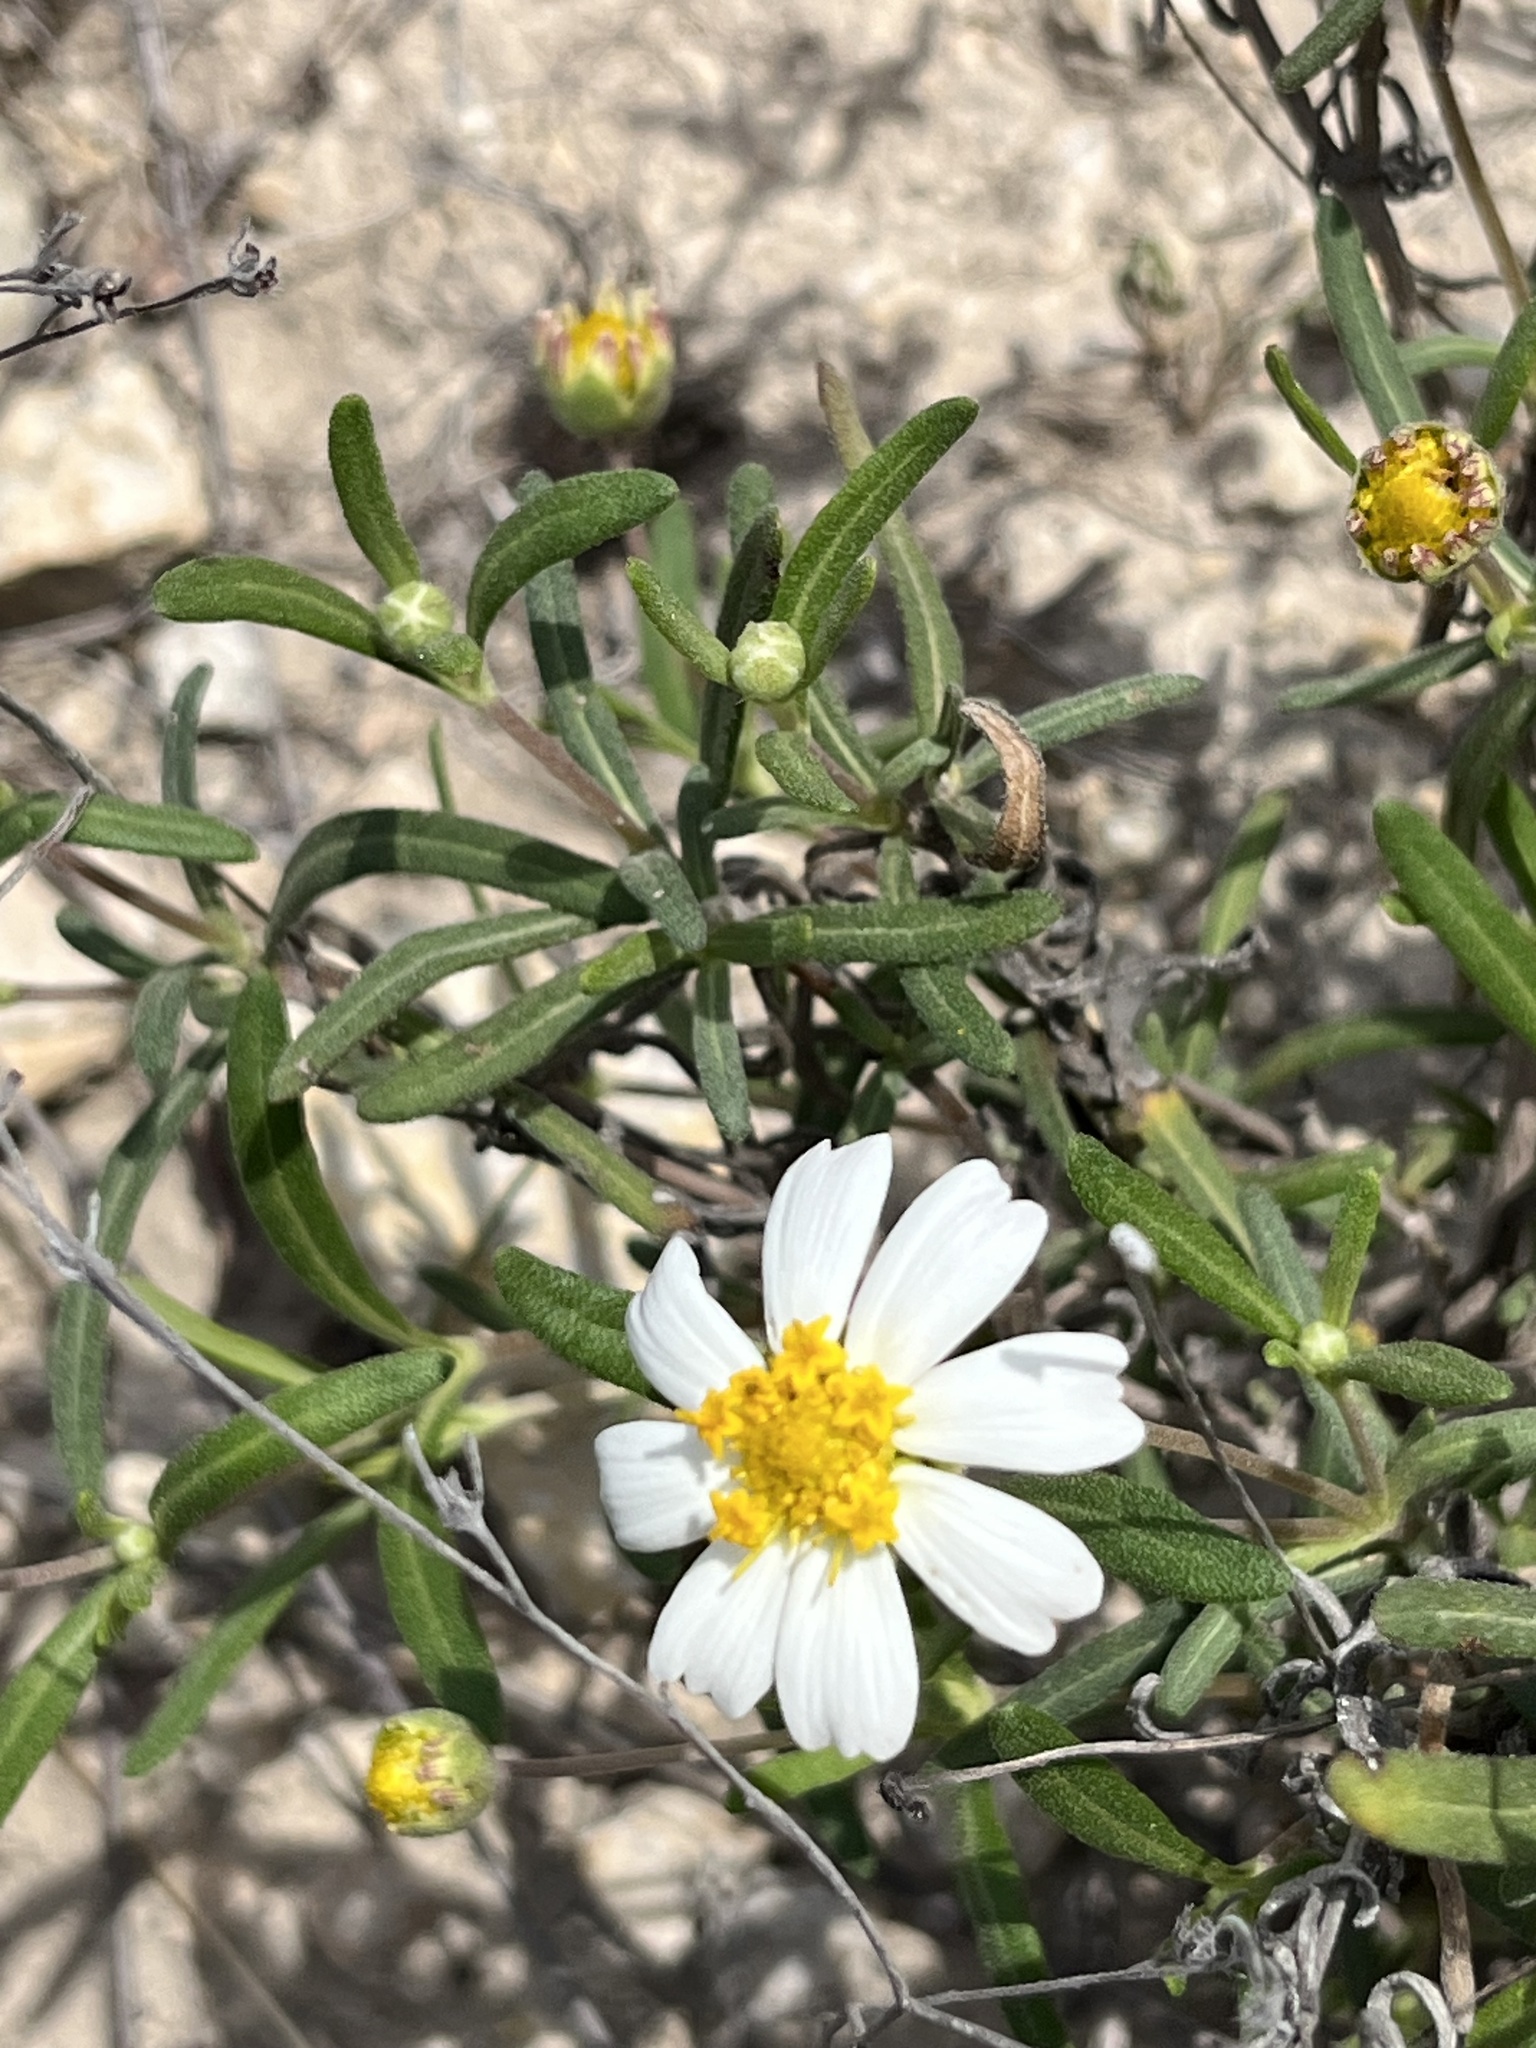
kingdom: Plantae
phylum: Tracheophyta
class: Magnoliopsida
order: Asterales
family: Asteraceae
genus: Melampodium
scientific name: Melampodium leucanthum
